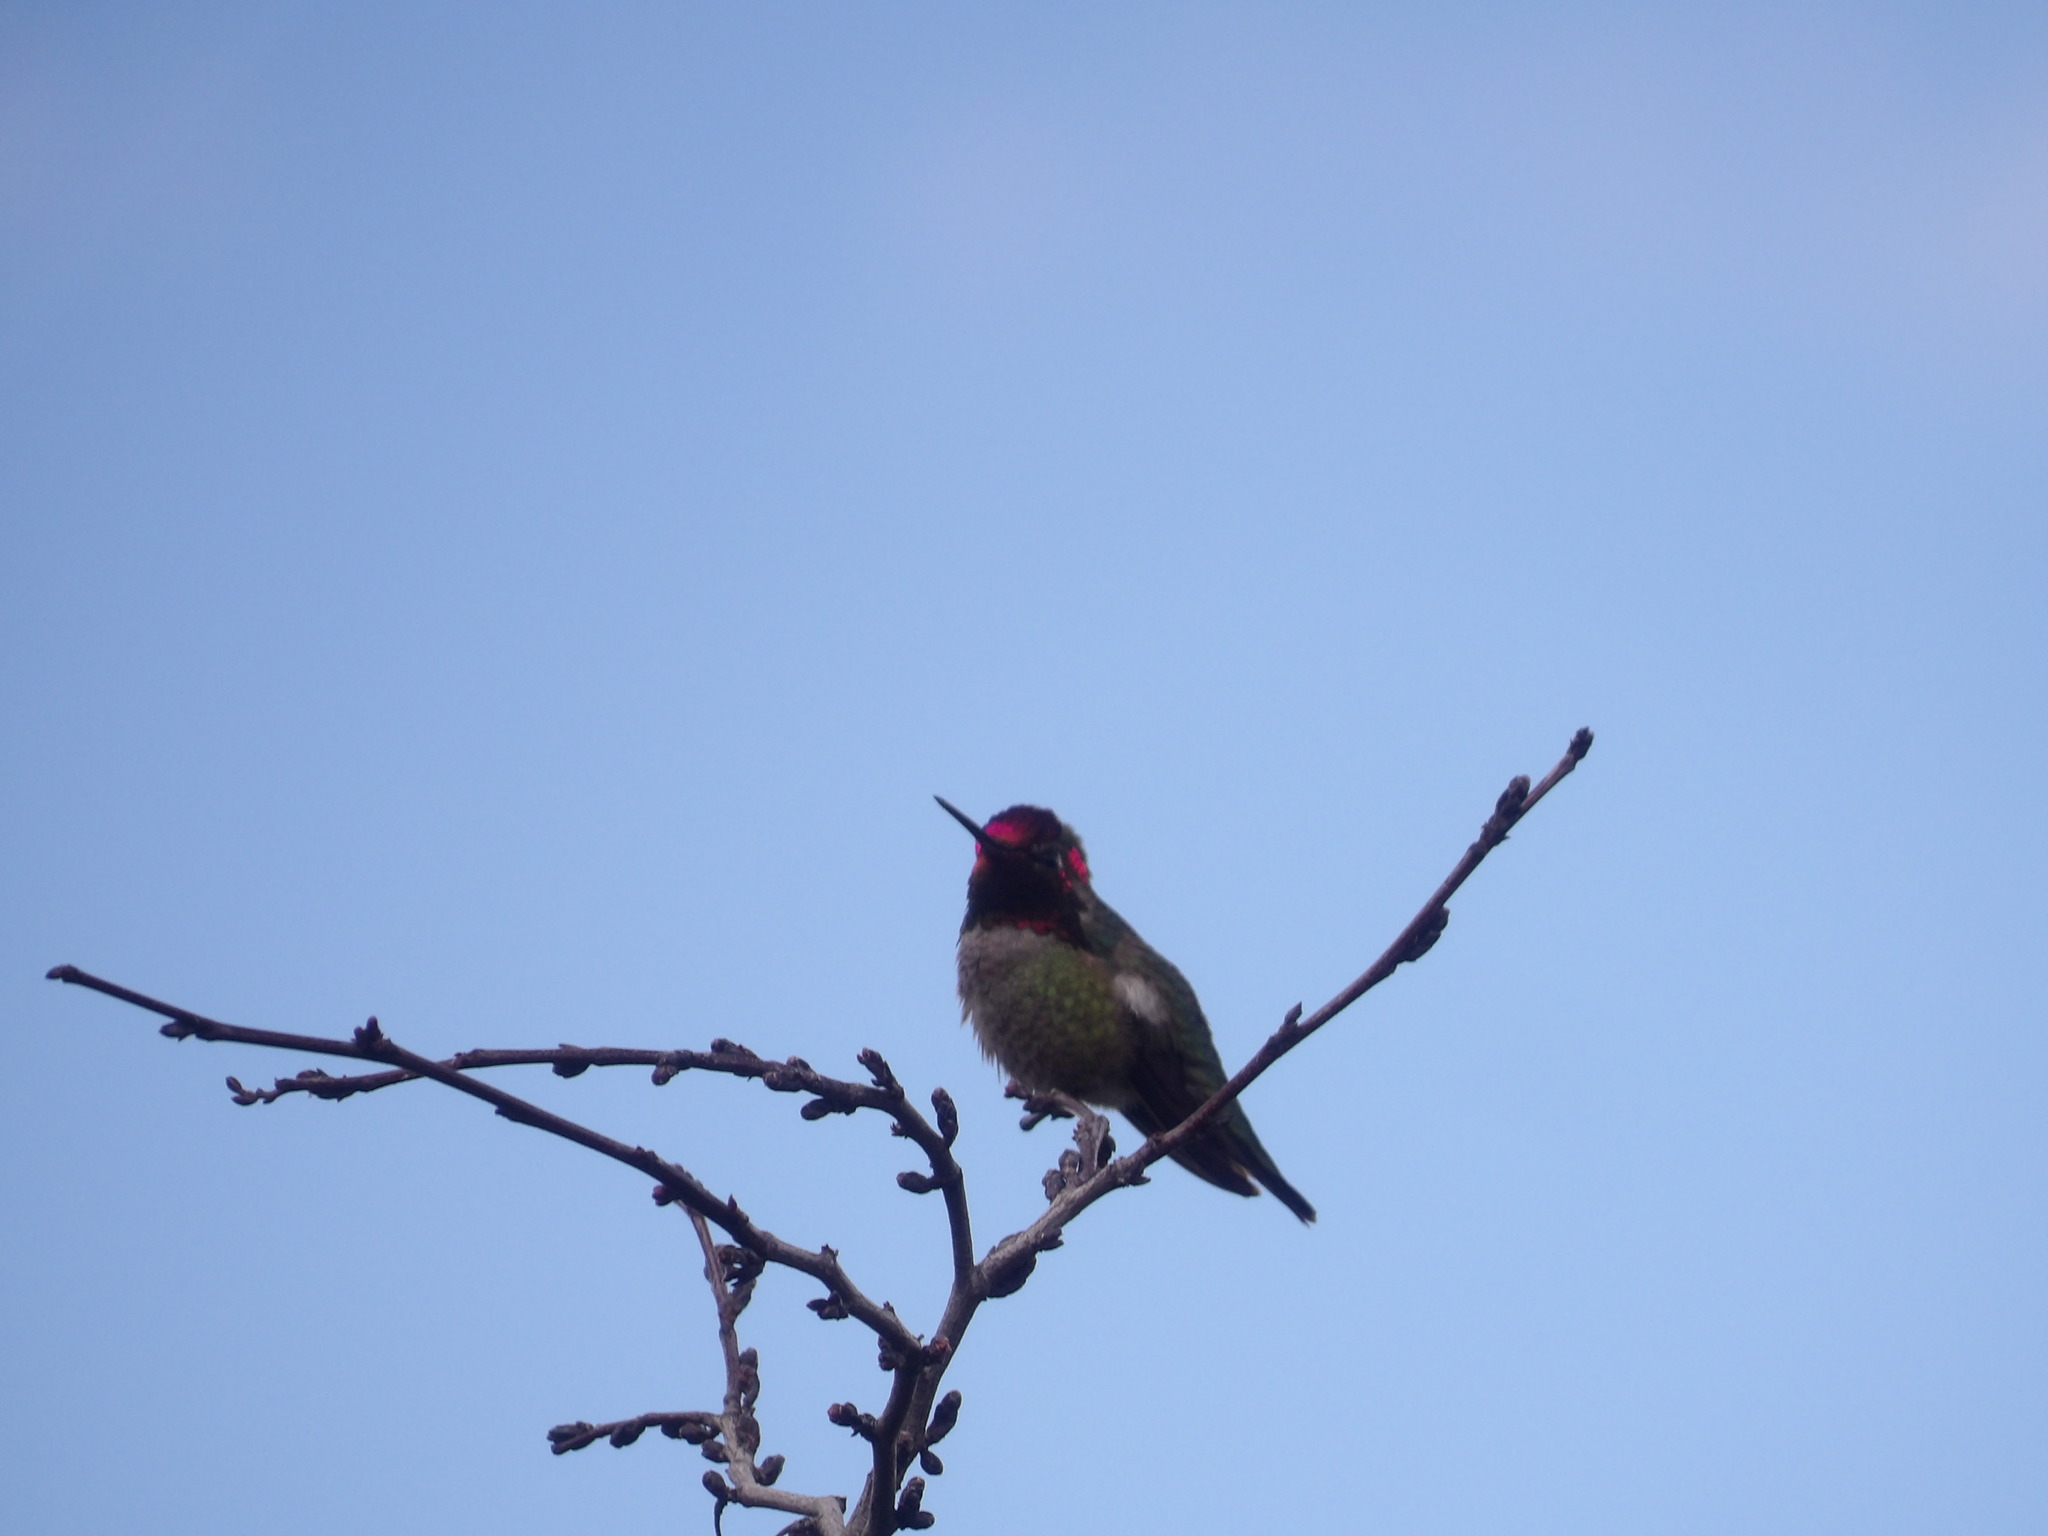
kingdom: Animalia
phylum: Chordata
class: Aves
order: Apodiformes
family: Trochilidae
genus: Calypte
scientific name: Calypte anna
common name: Anna's hummingbird
